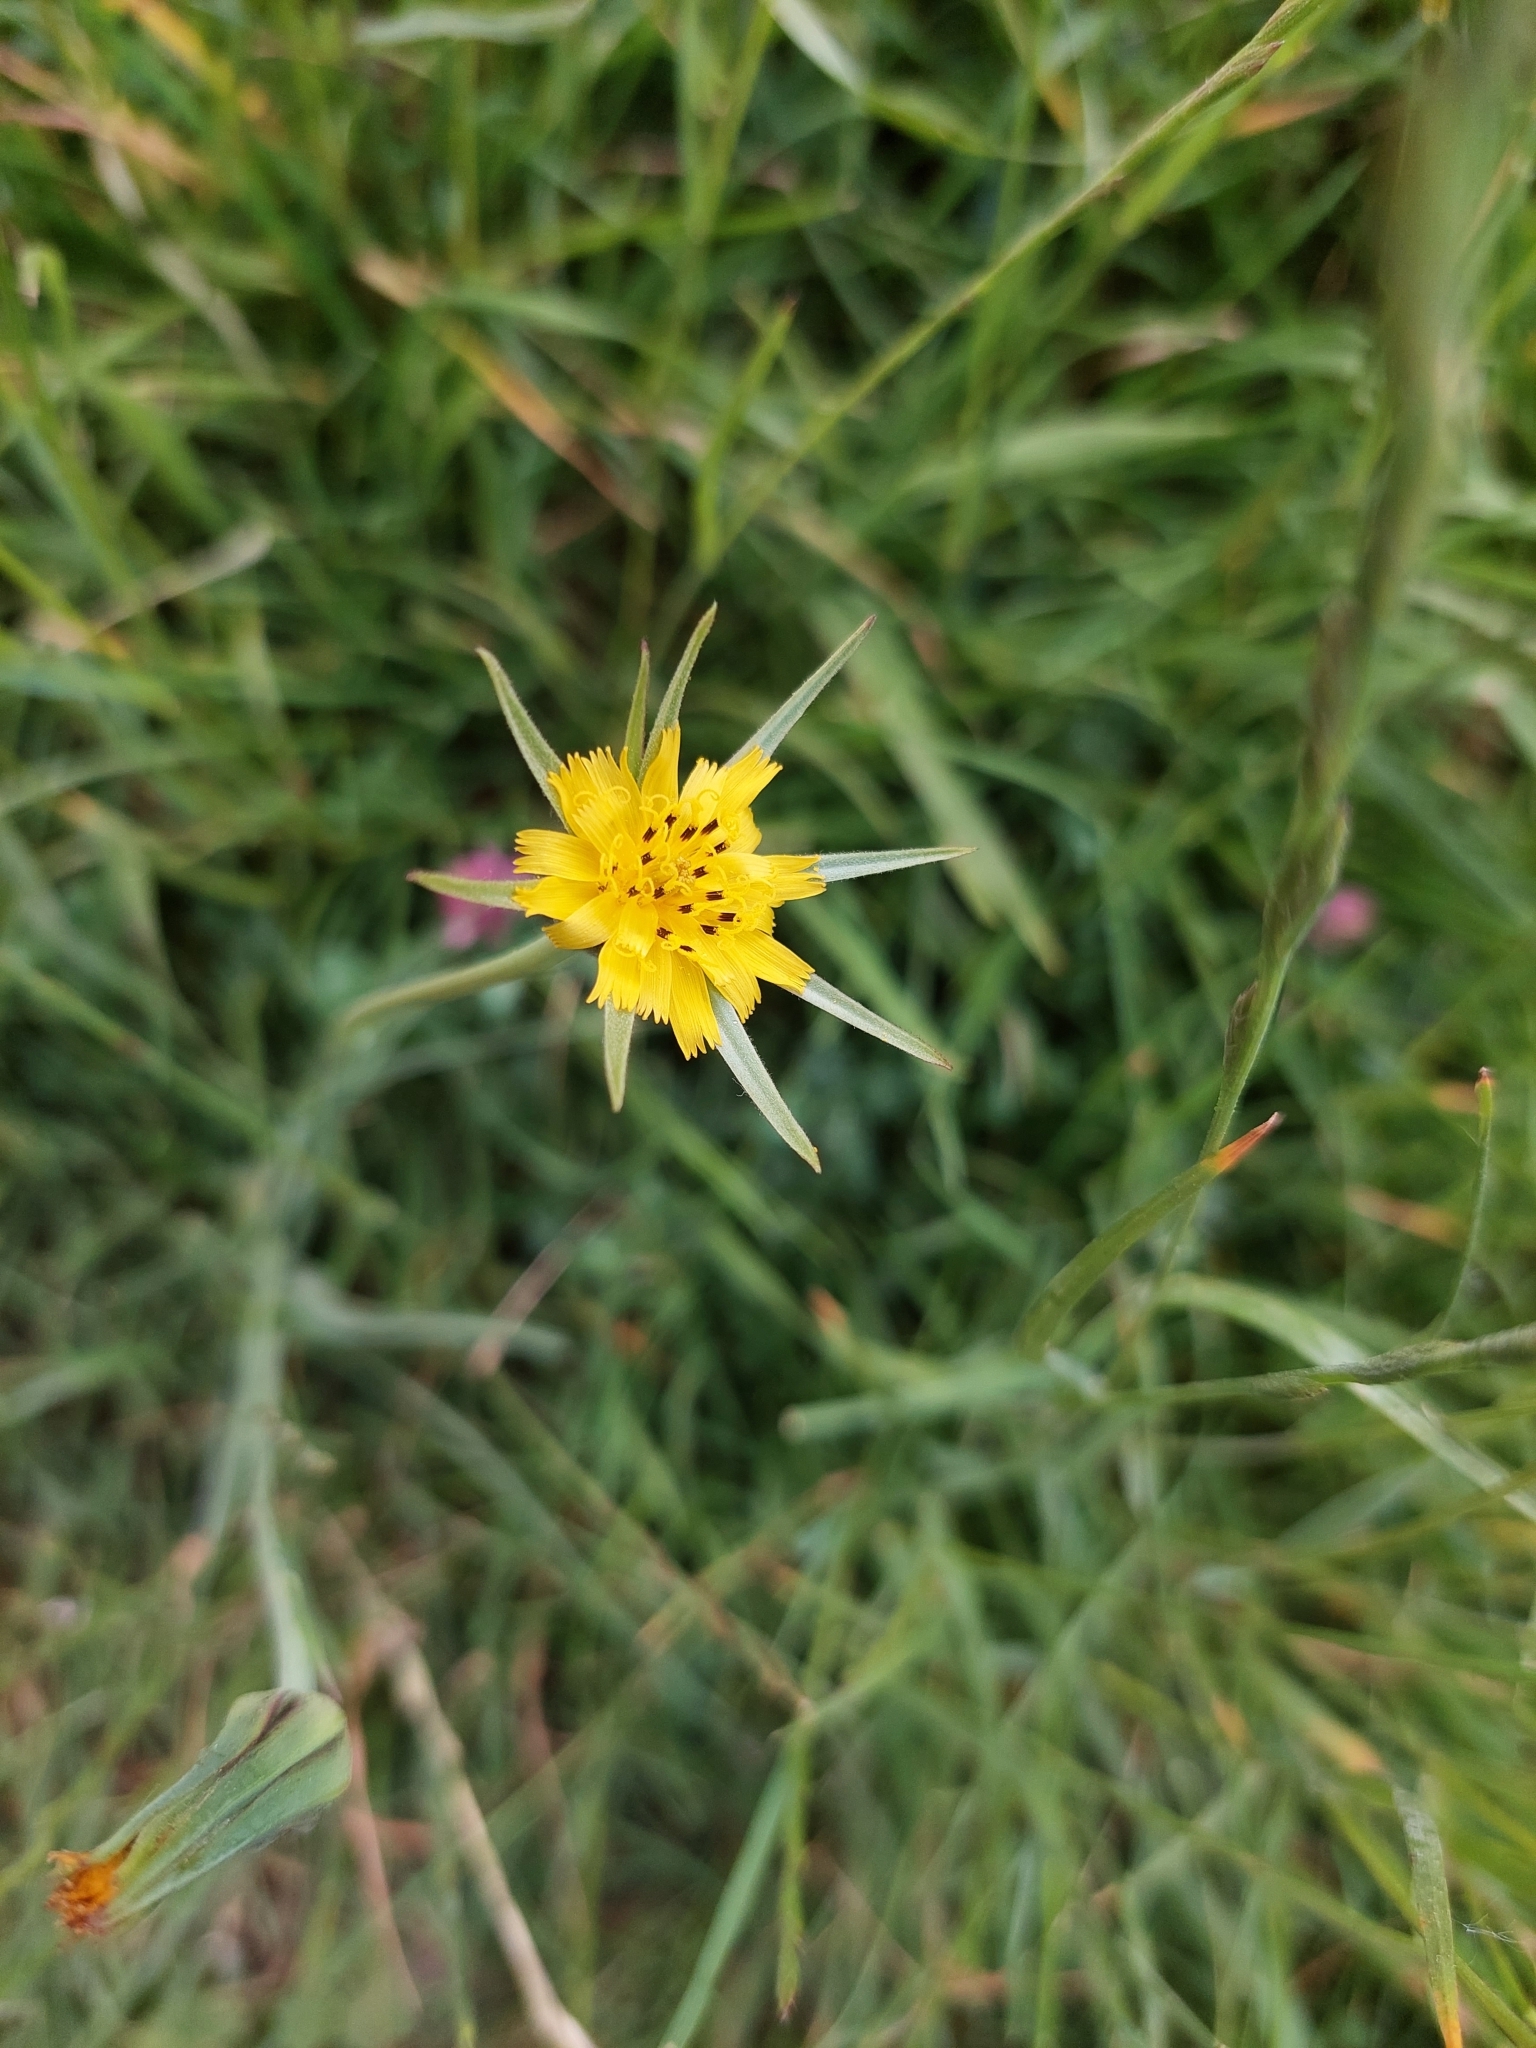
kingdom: Plantae
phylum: Tracheophyta
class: Magnoliopsida
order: Asterales
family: Asteraceae
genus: Tragopogon
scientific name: Tragopogon pratensis
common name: Goat's-beard
